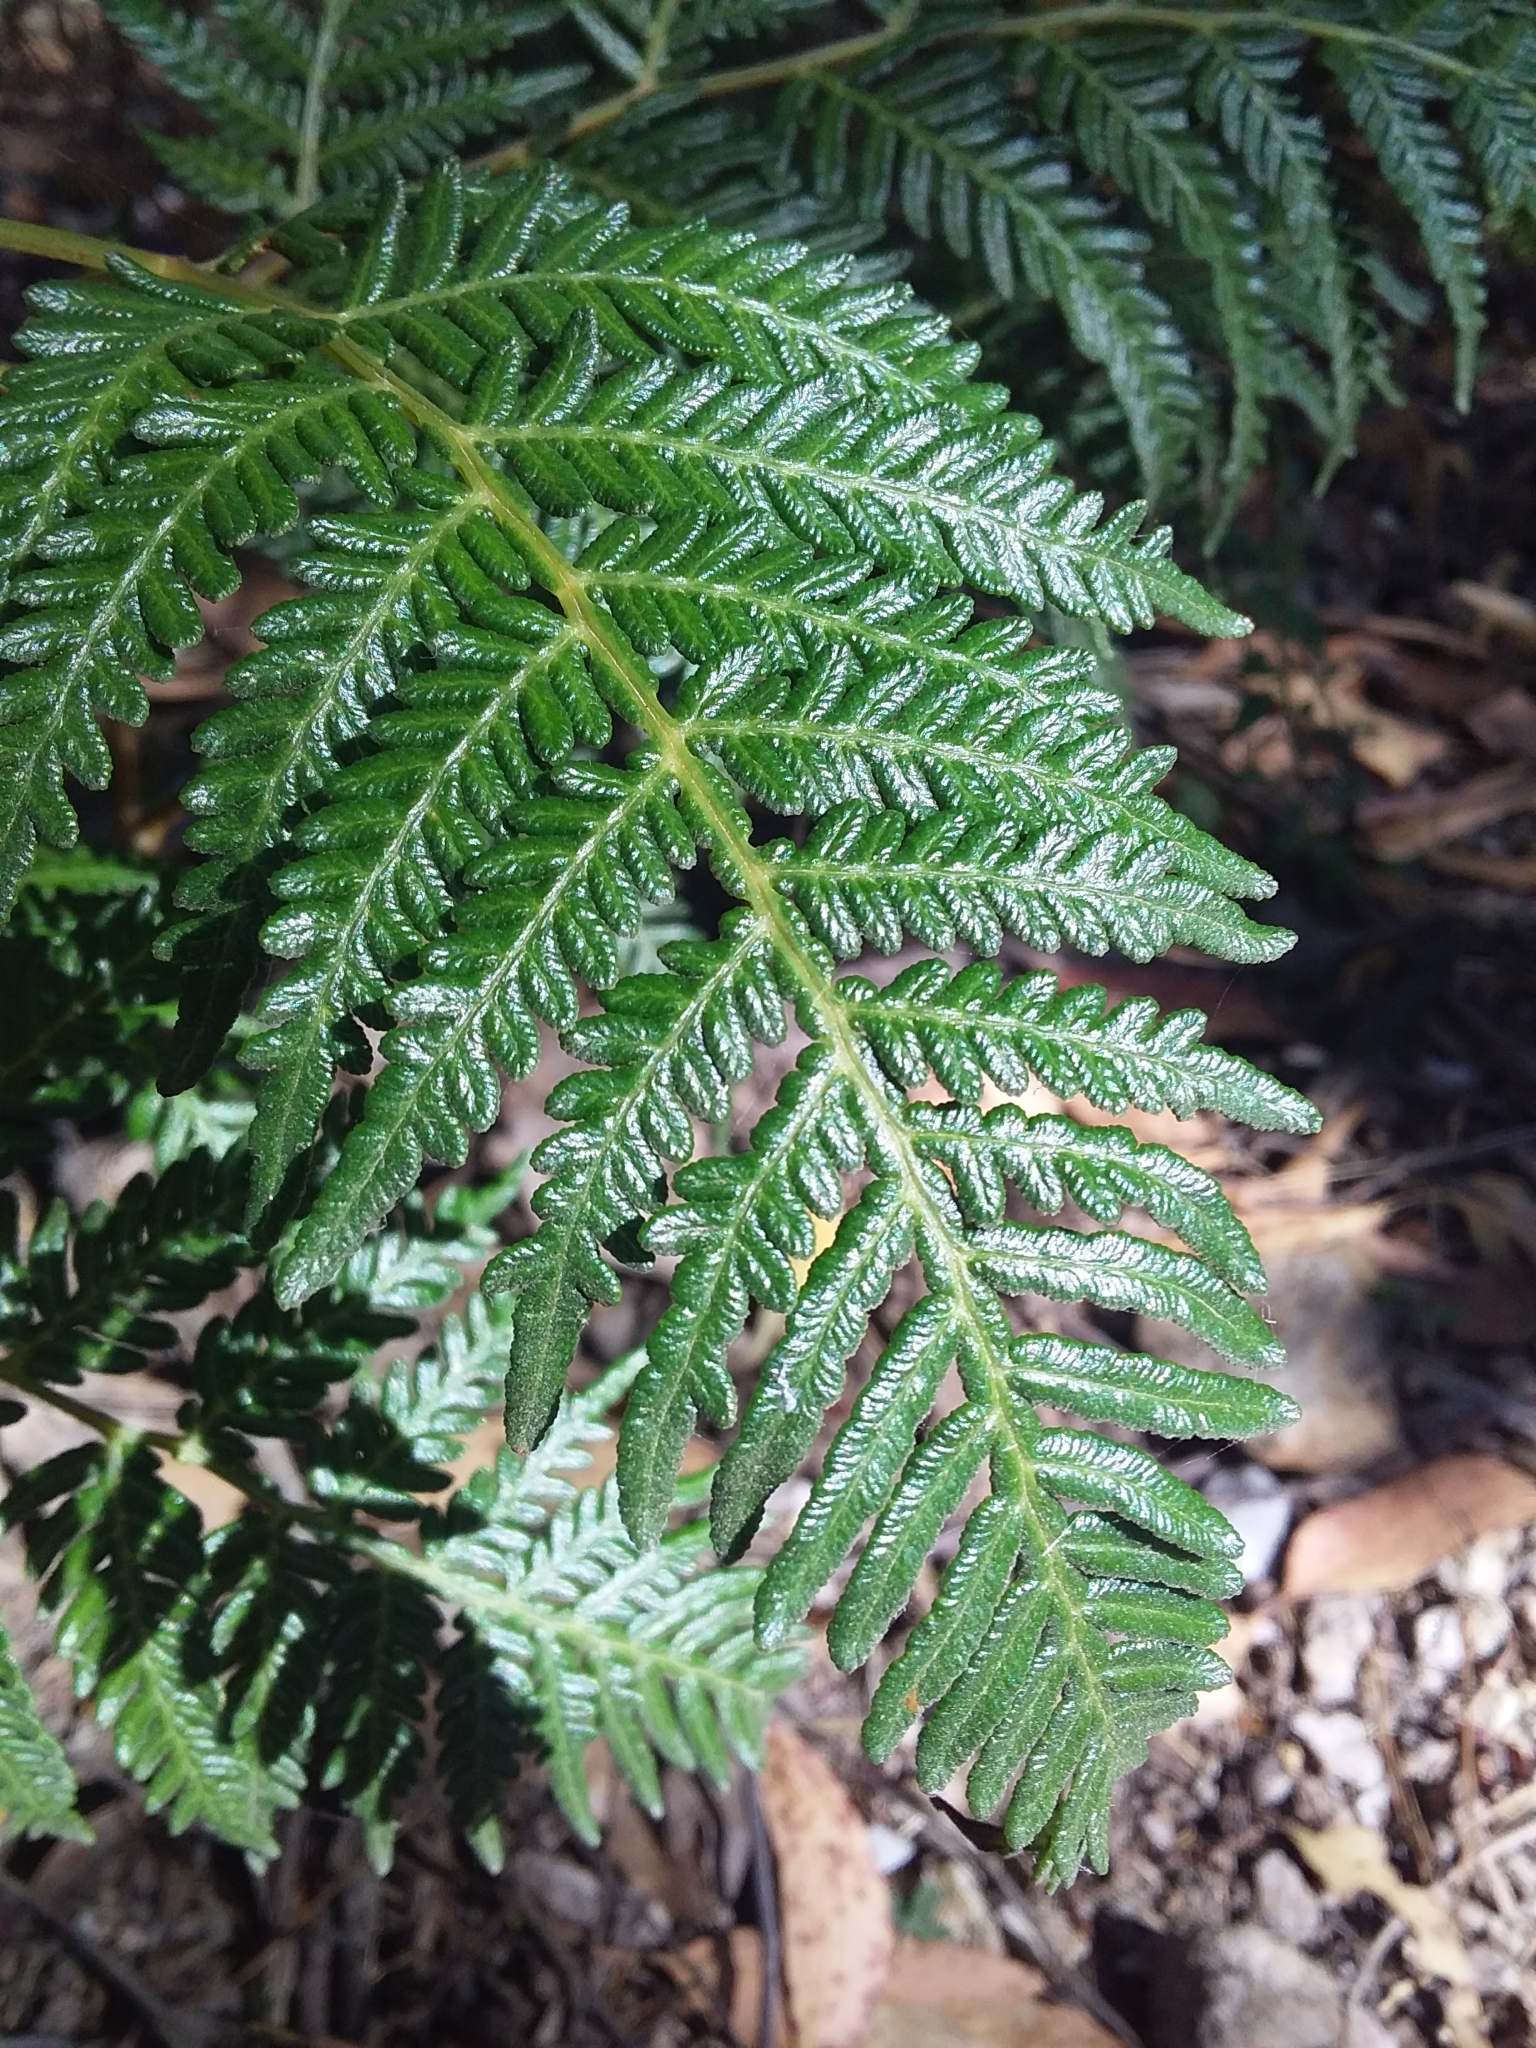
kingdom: Plantae
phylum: Tracheophyta
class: Polypodiopsida
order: Polypodiales
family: Dennstaedtiaceae
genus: Pteridium
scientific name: Pteridium esculentum
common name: Bracken fern
